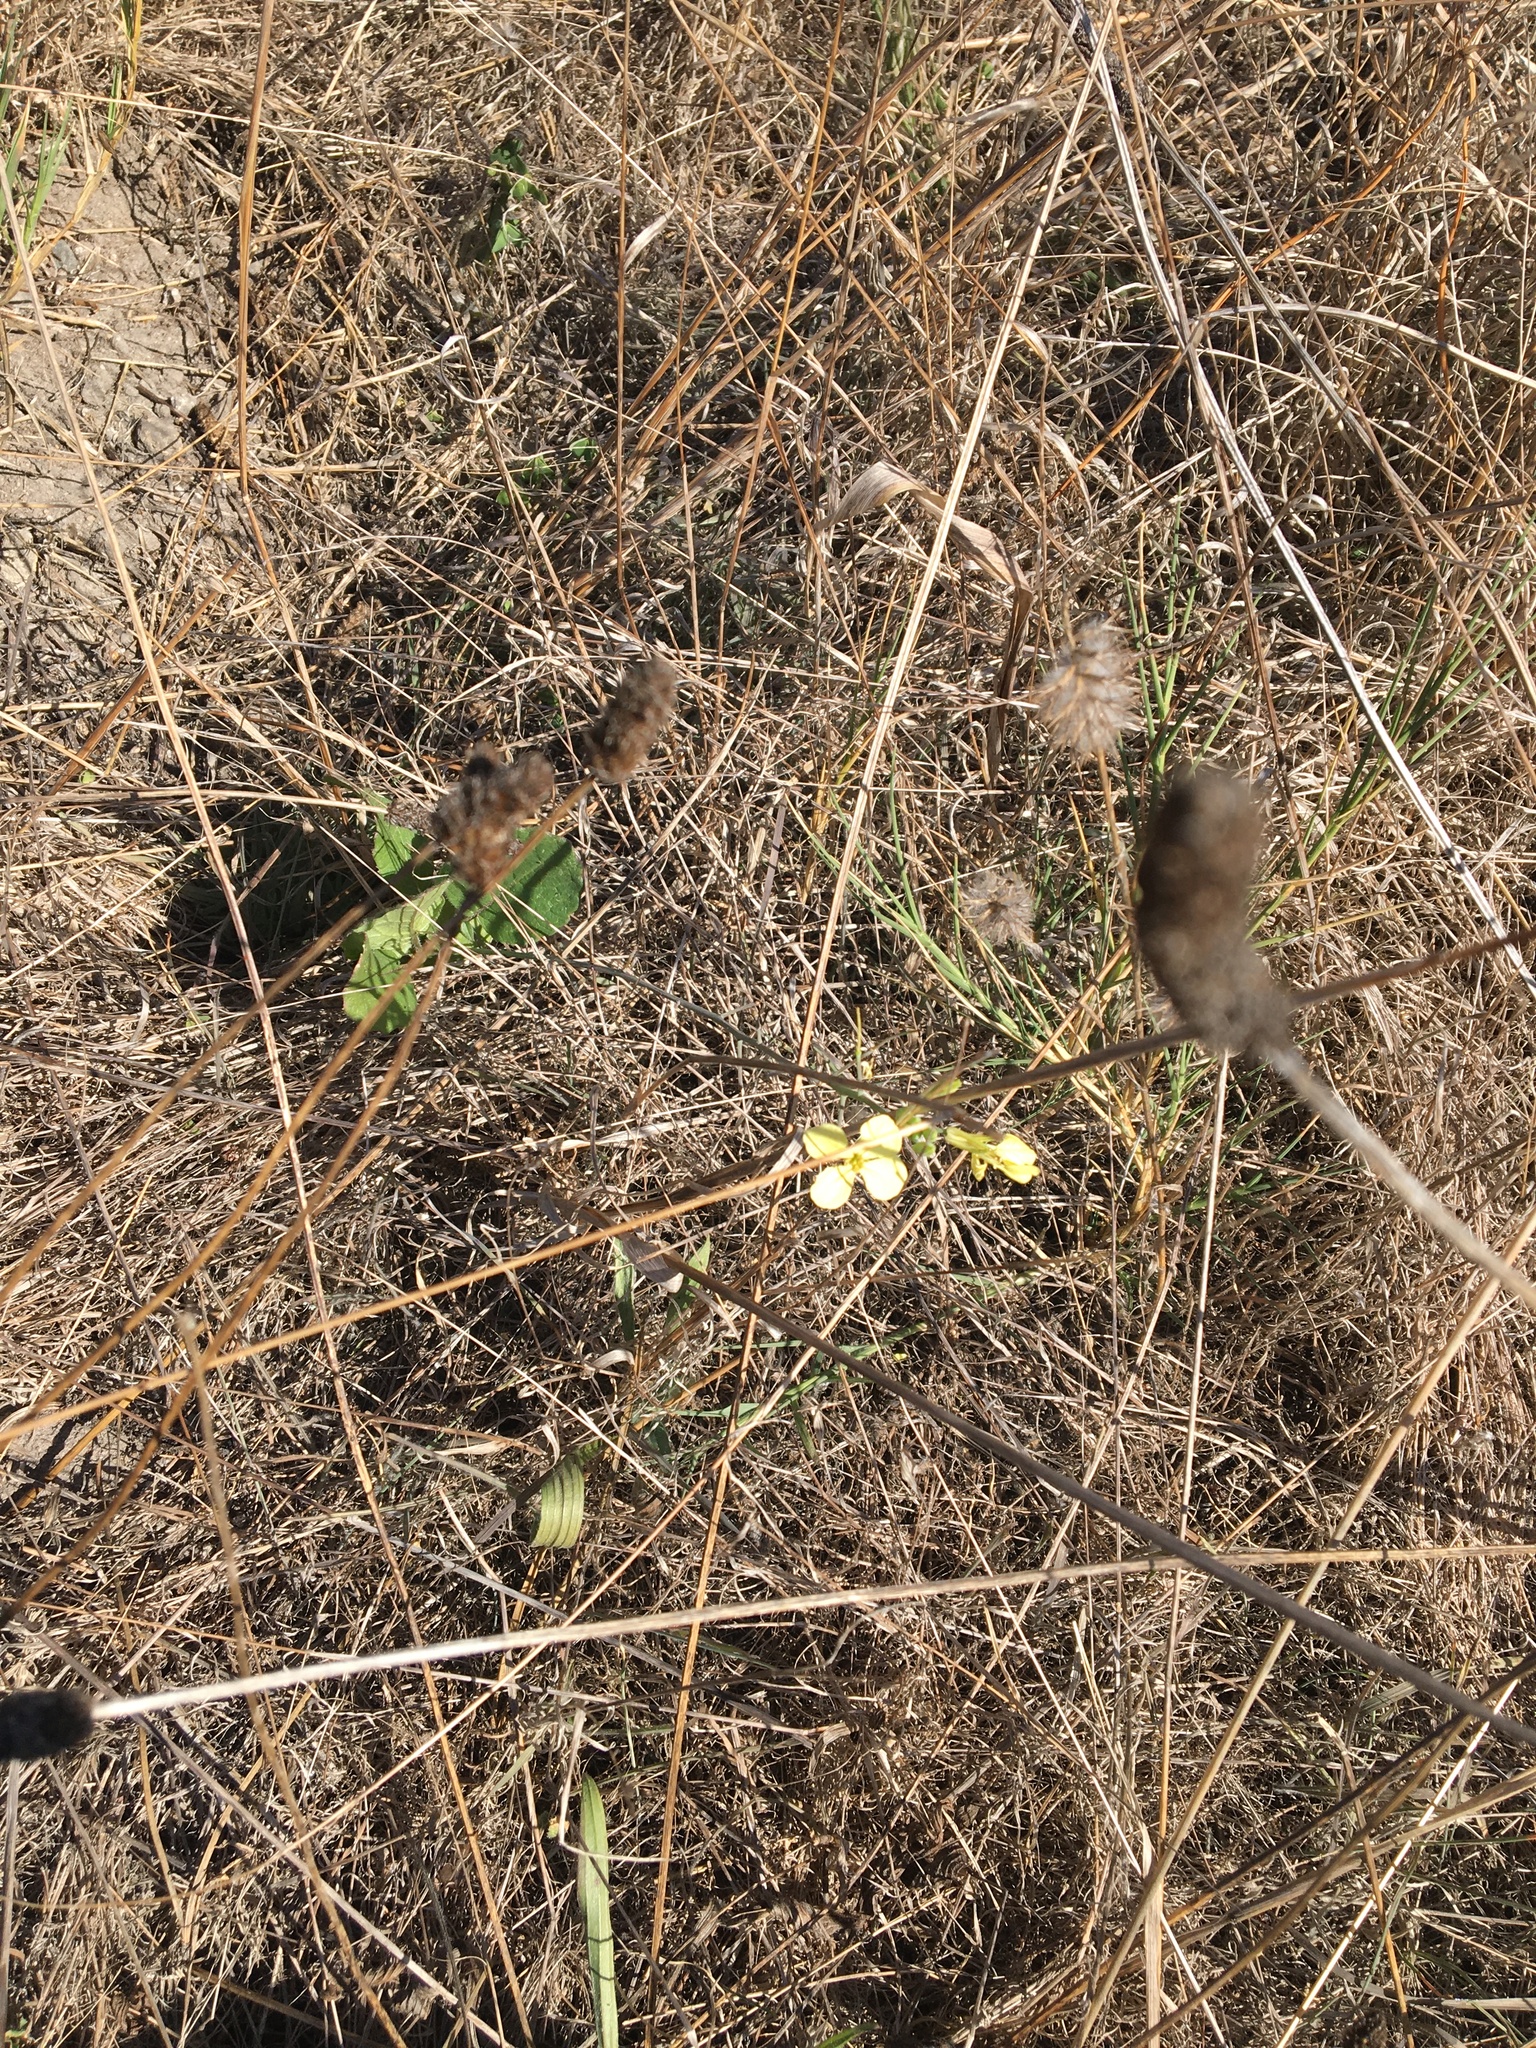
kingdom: Plantae
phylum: Tracheophyta
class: Magnoliopsida
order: Brassicales
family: Brassicaceae
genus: Raphanus
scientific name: Raphanus raphanistrum
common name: Wild radish
